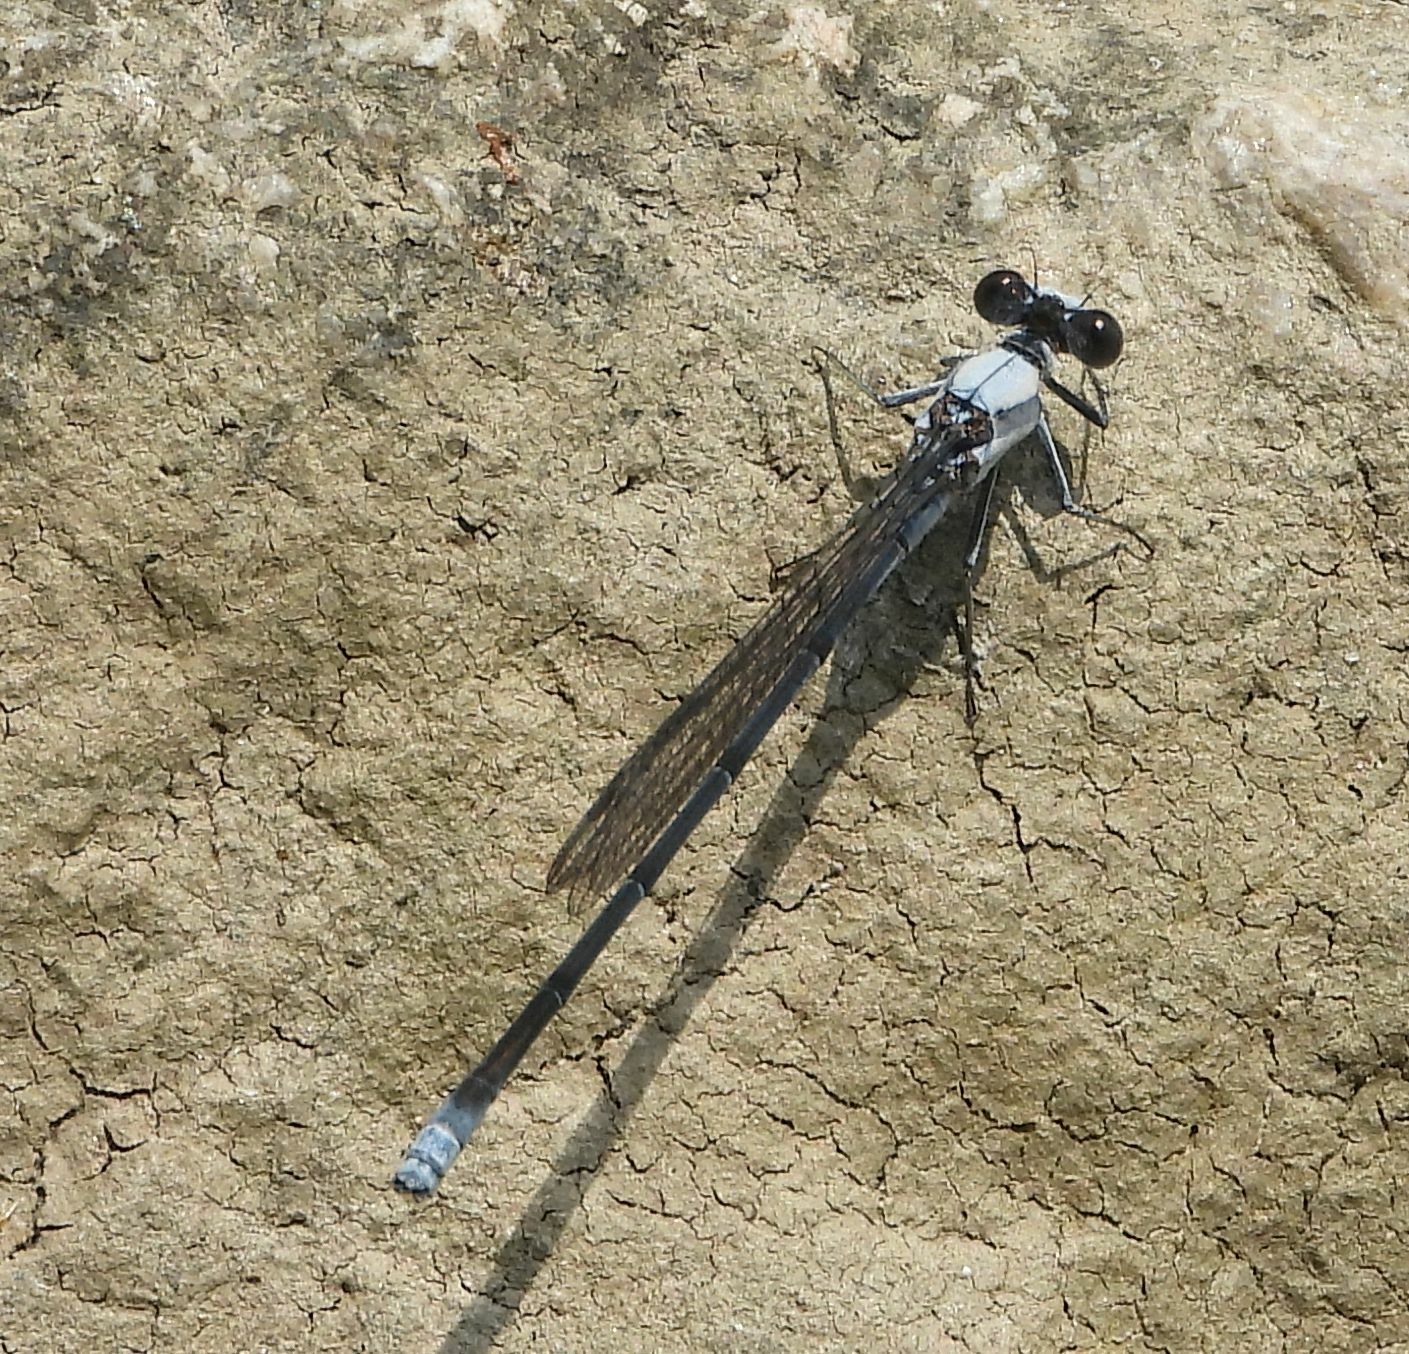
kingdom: Animalia
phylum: Arthropoda
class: Insecta
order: Odonata
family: Coenagrionidae
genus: Argia
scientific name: Argia moesta
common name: Powdered dancer
